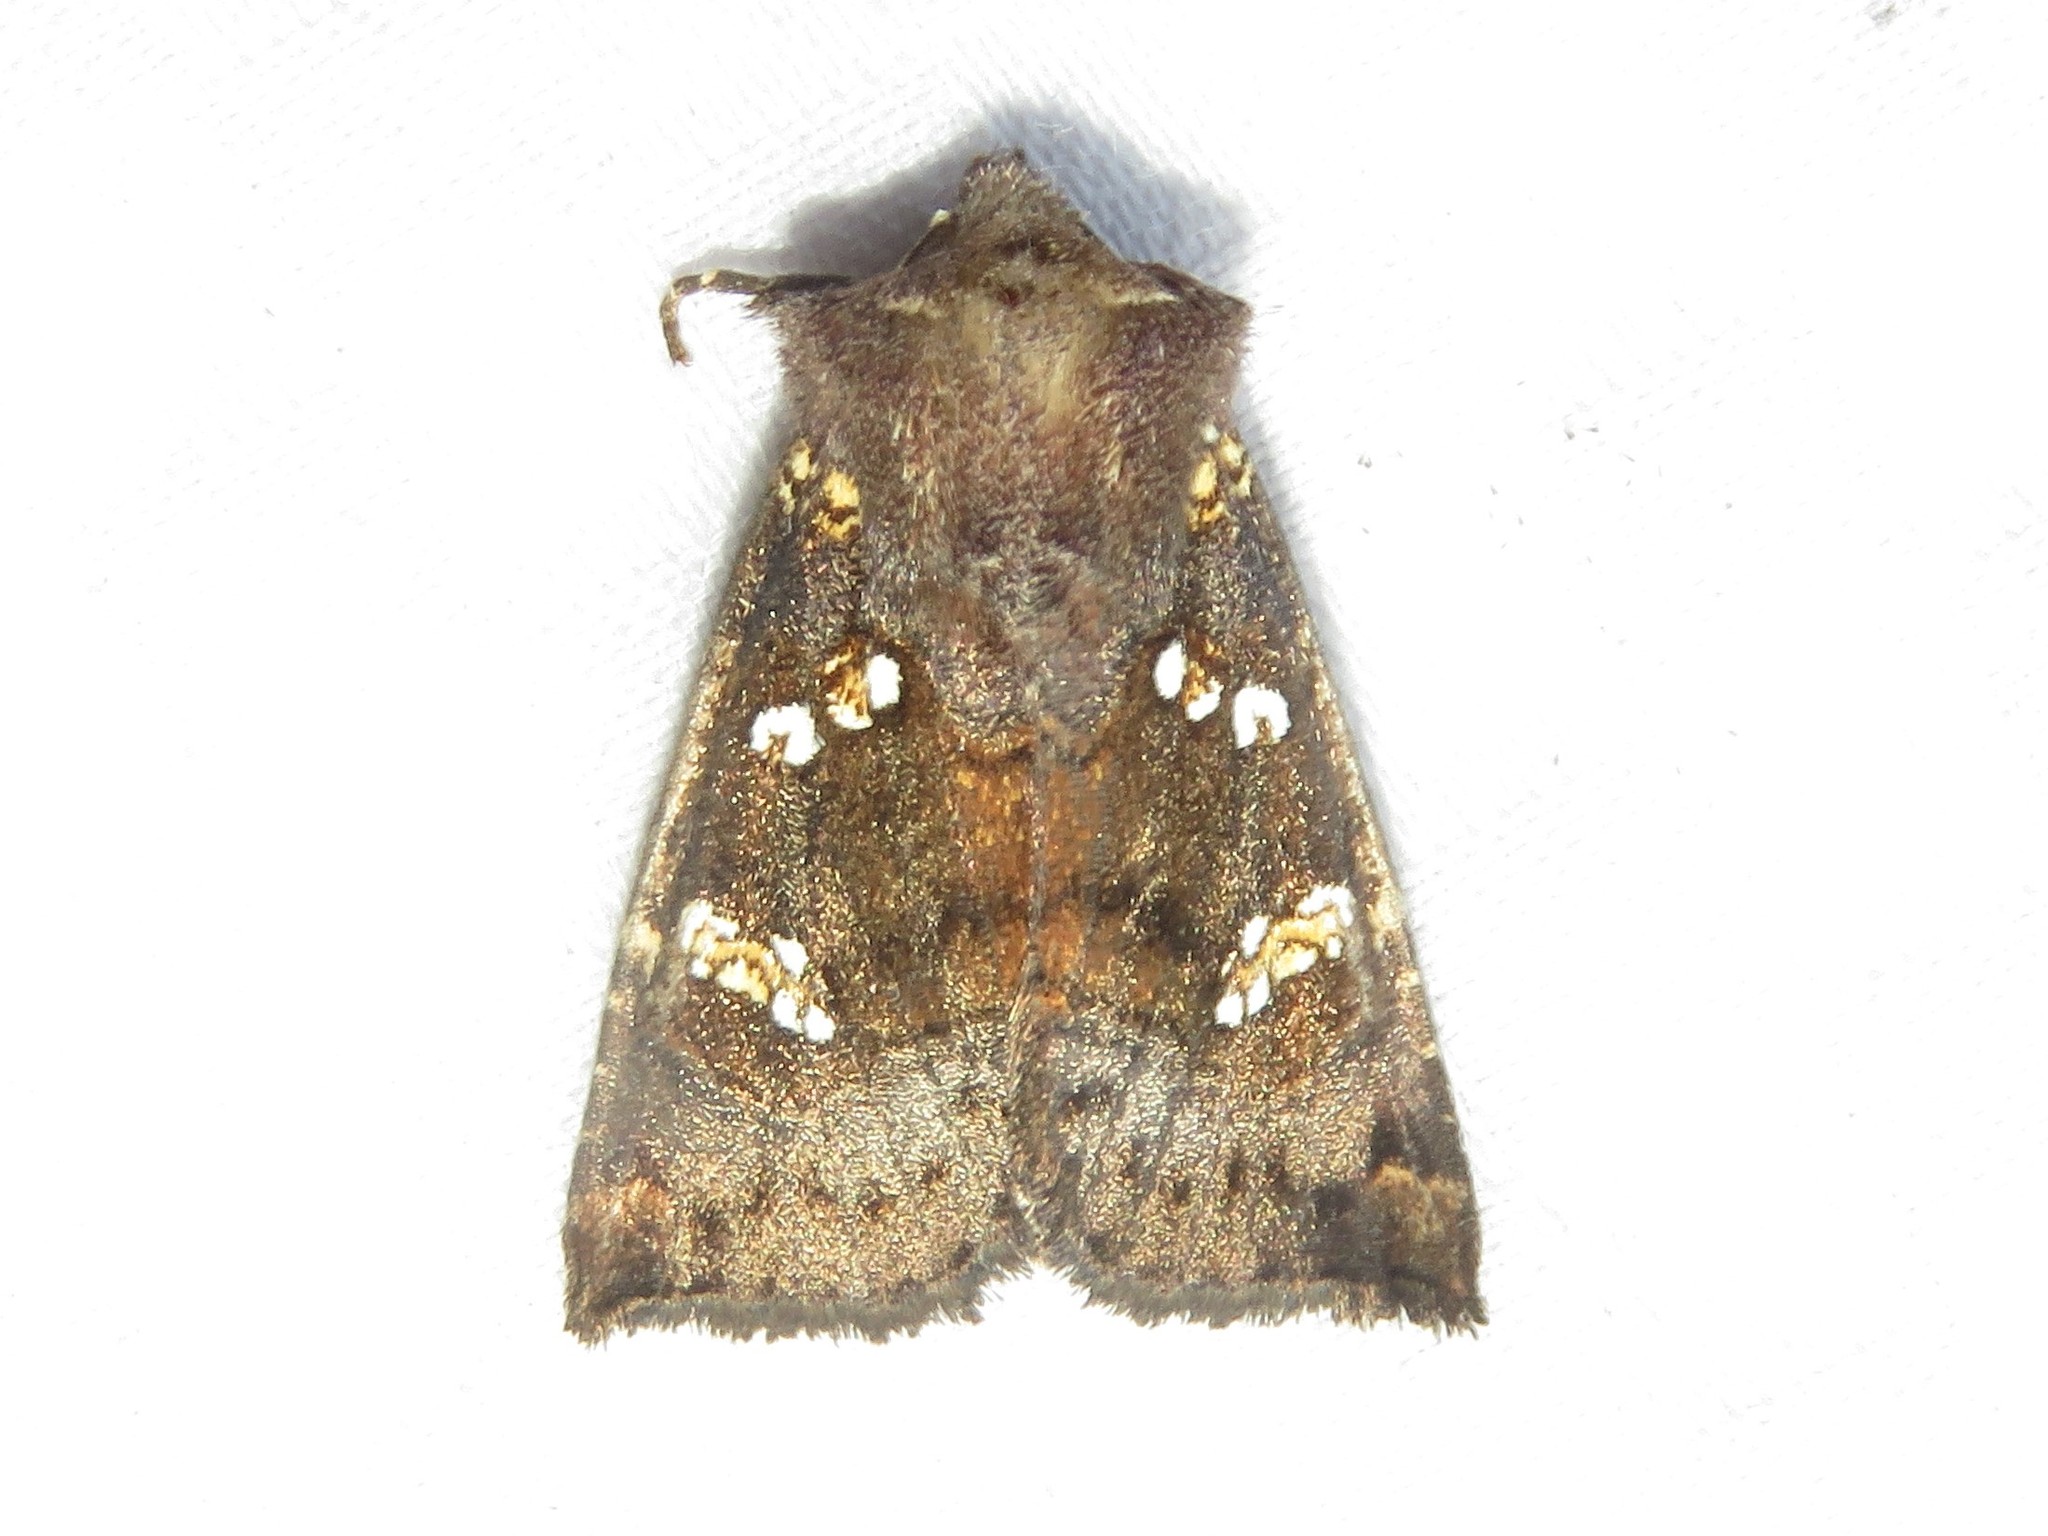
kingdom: Animalia
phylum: Arthropoda
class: Insecta
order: Lepidoptera
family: Noctuidae
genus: Papaipema
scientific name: Papaipema unimoda
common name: Meadow rue borer moth
